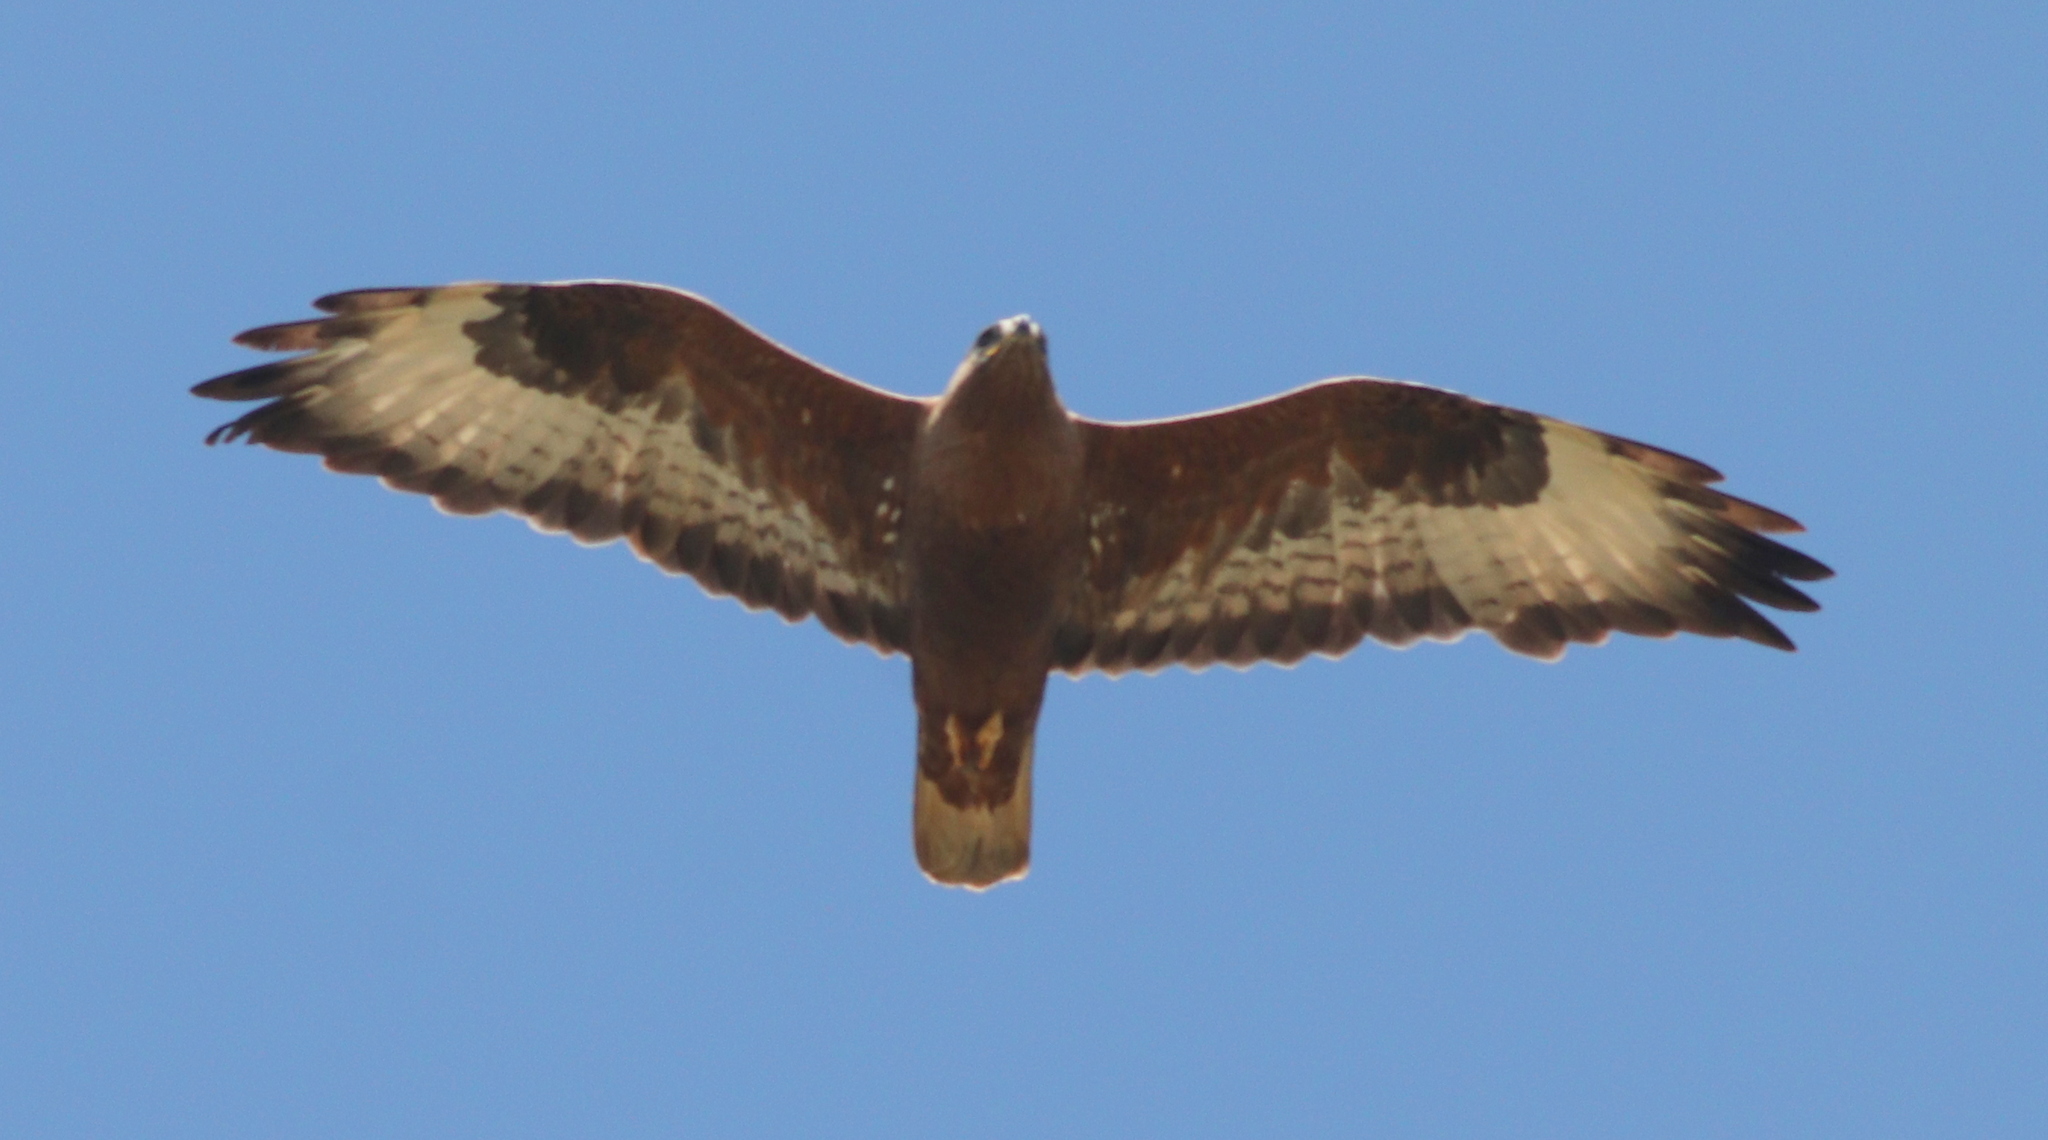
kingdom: Animalia
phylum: Chordata
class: Aves
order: Accipitriformes
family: Accipitridae
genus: Buteo
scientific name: Buteo rufinus
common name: Long-legged buzzard
